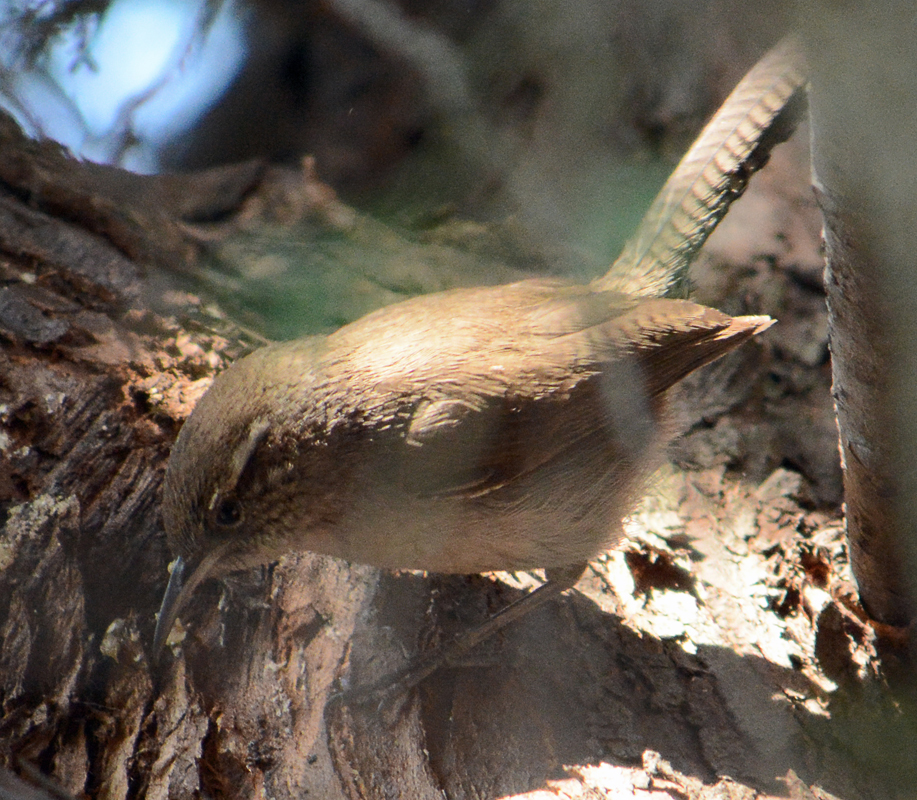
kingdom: Animalia
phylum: Chordata
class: Aves
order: Passeriformes
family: Troglodytidae
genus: Thryomanes
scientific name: Thryomanes bewickii
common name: Bewick's wren
